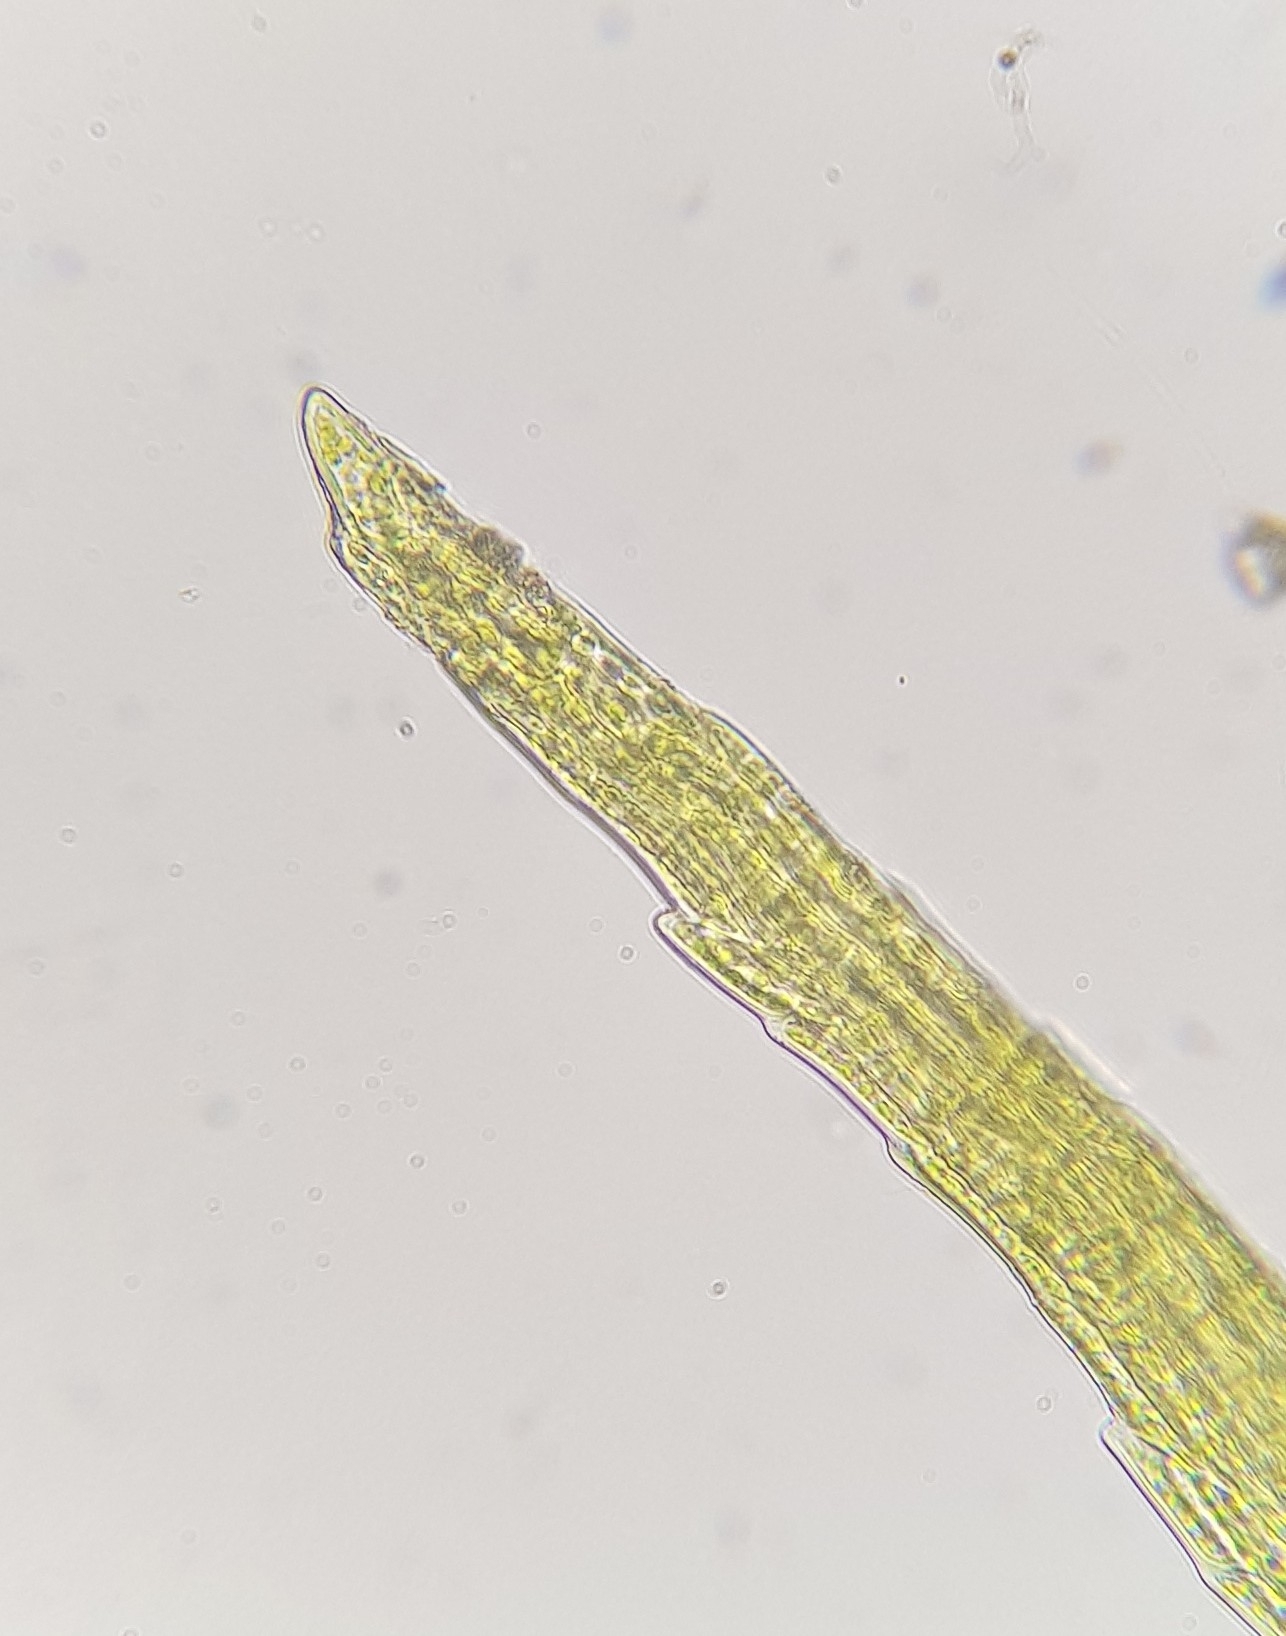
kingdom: Plantae
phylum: Bryophyta
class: Bryopsida
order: Dicranales
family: Dicranellaceae
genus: Dicranella
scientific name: Dicranella heteromalla
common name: Silky forklet moss
